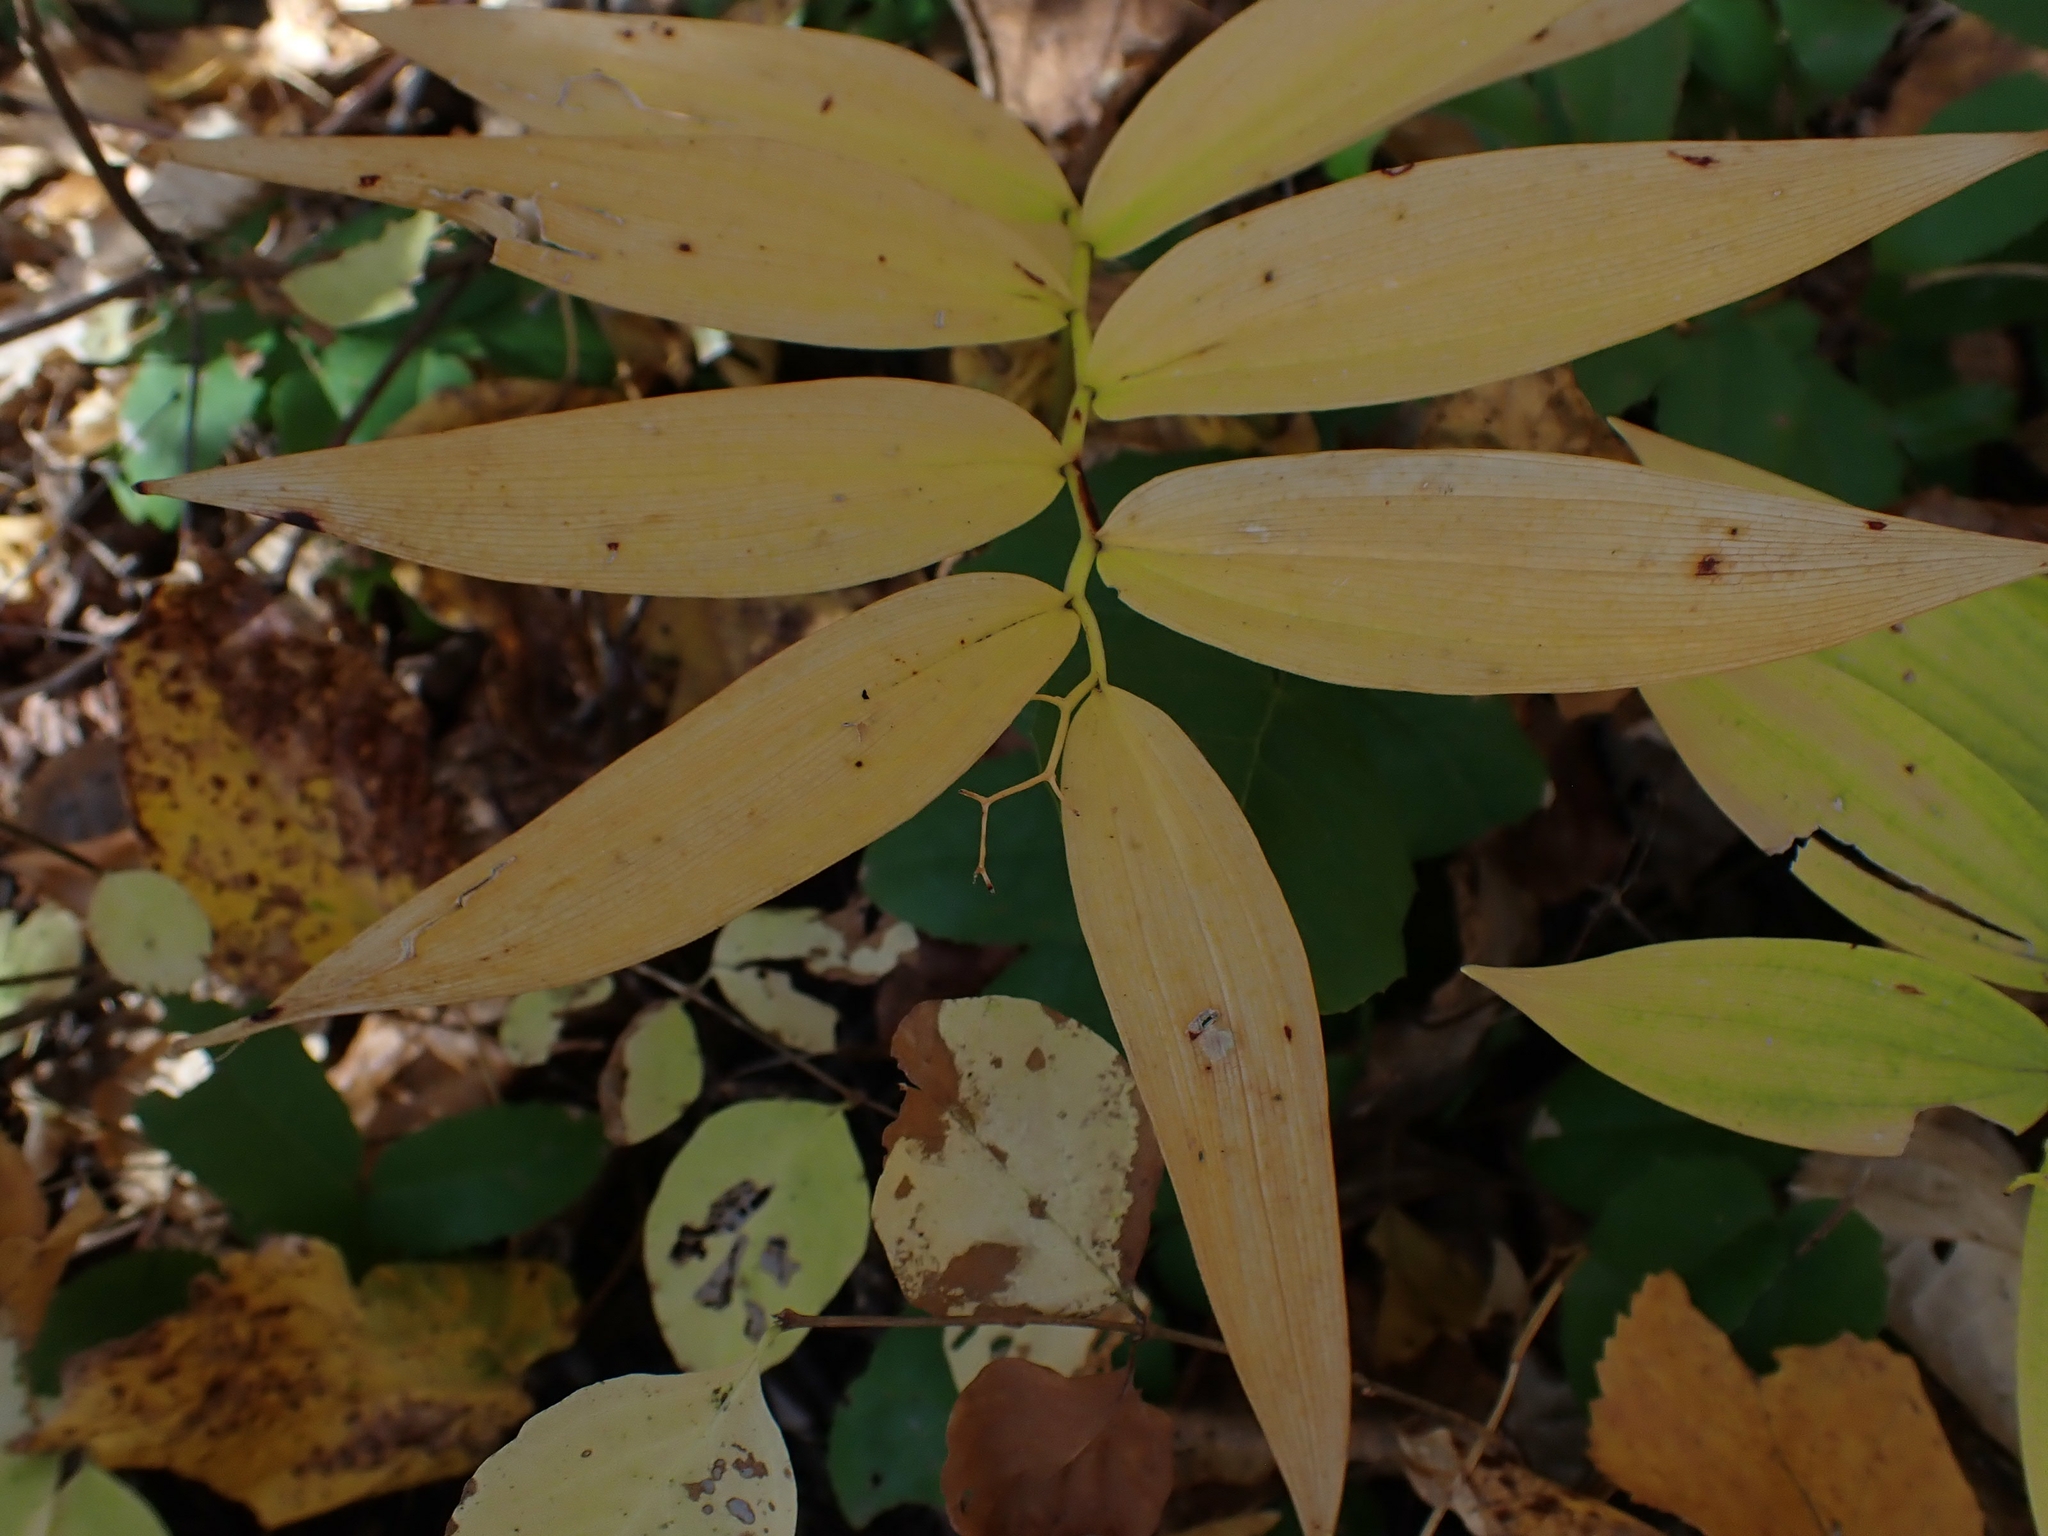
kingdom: Plantae
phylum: Tracheophyta
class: Liliopsida
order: Asparagales
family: Asparagaceae
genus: Maianthemum
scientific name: Maianthemum stellatum
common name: Little false solomon's seal
